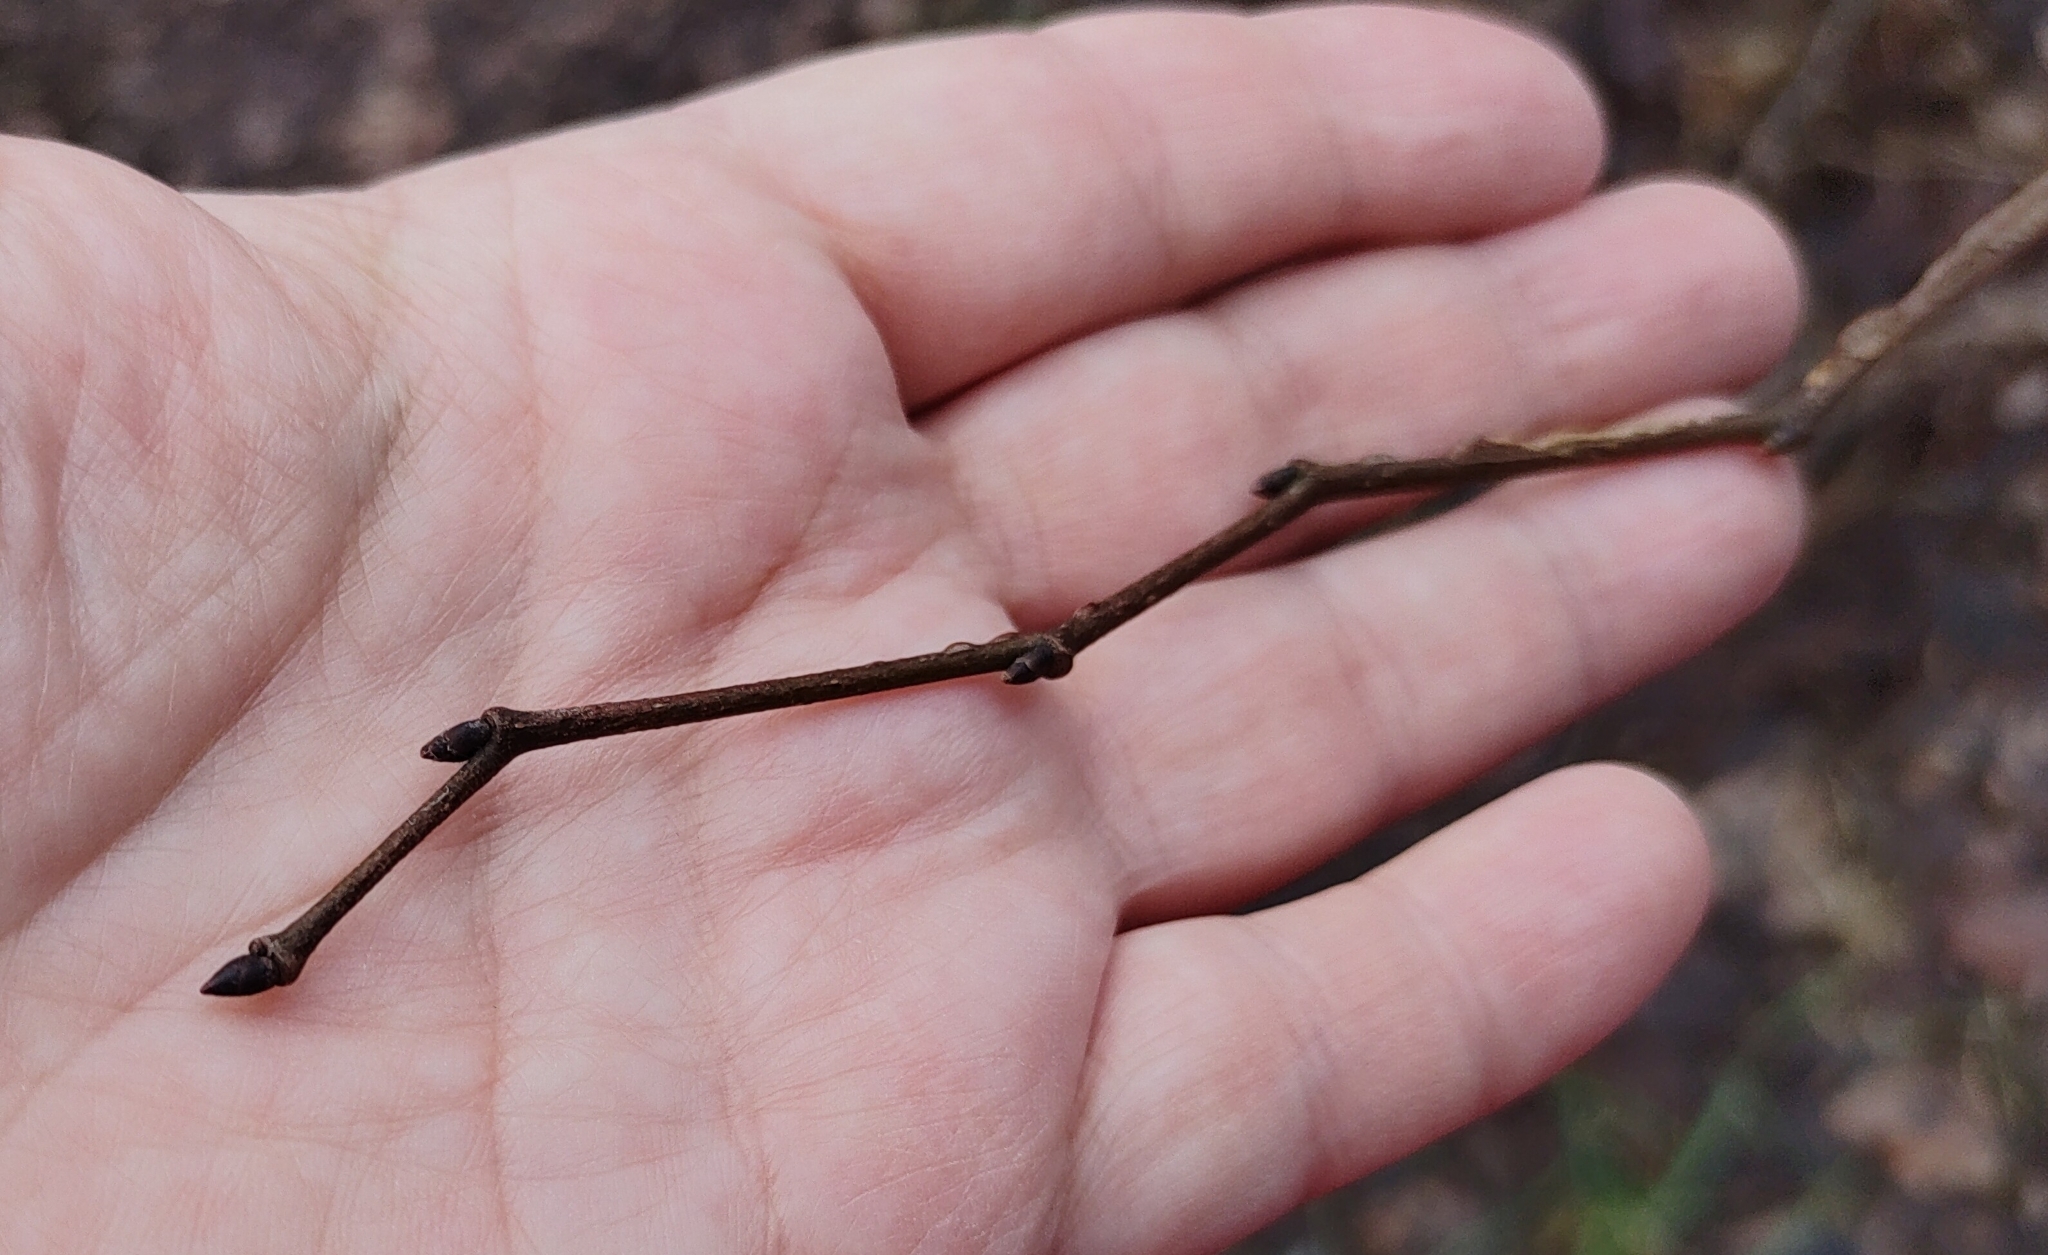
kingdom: Plantae
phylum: Tracheophyta
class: Magnoliopsida
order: Rosales
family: Ulmaceae
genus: Ulmus
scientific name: Ulmus minor
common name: Small-leaved elm
